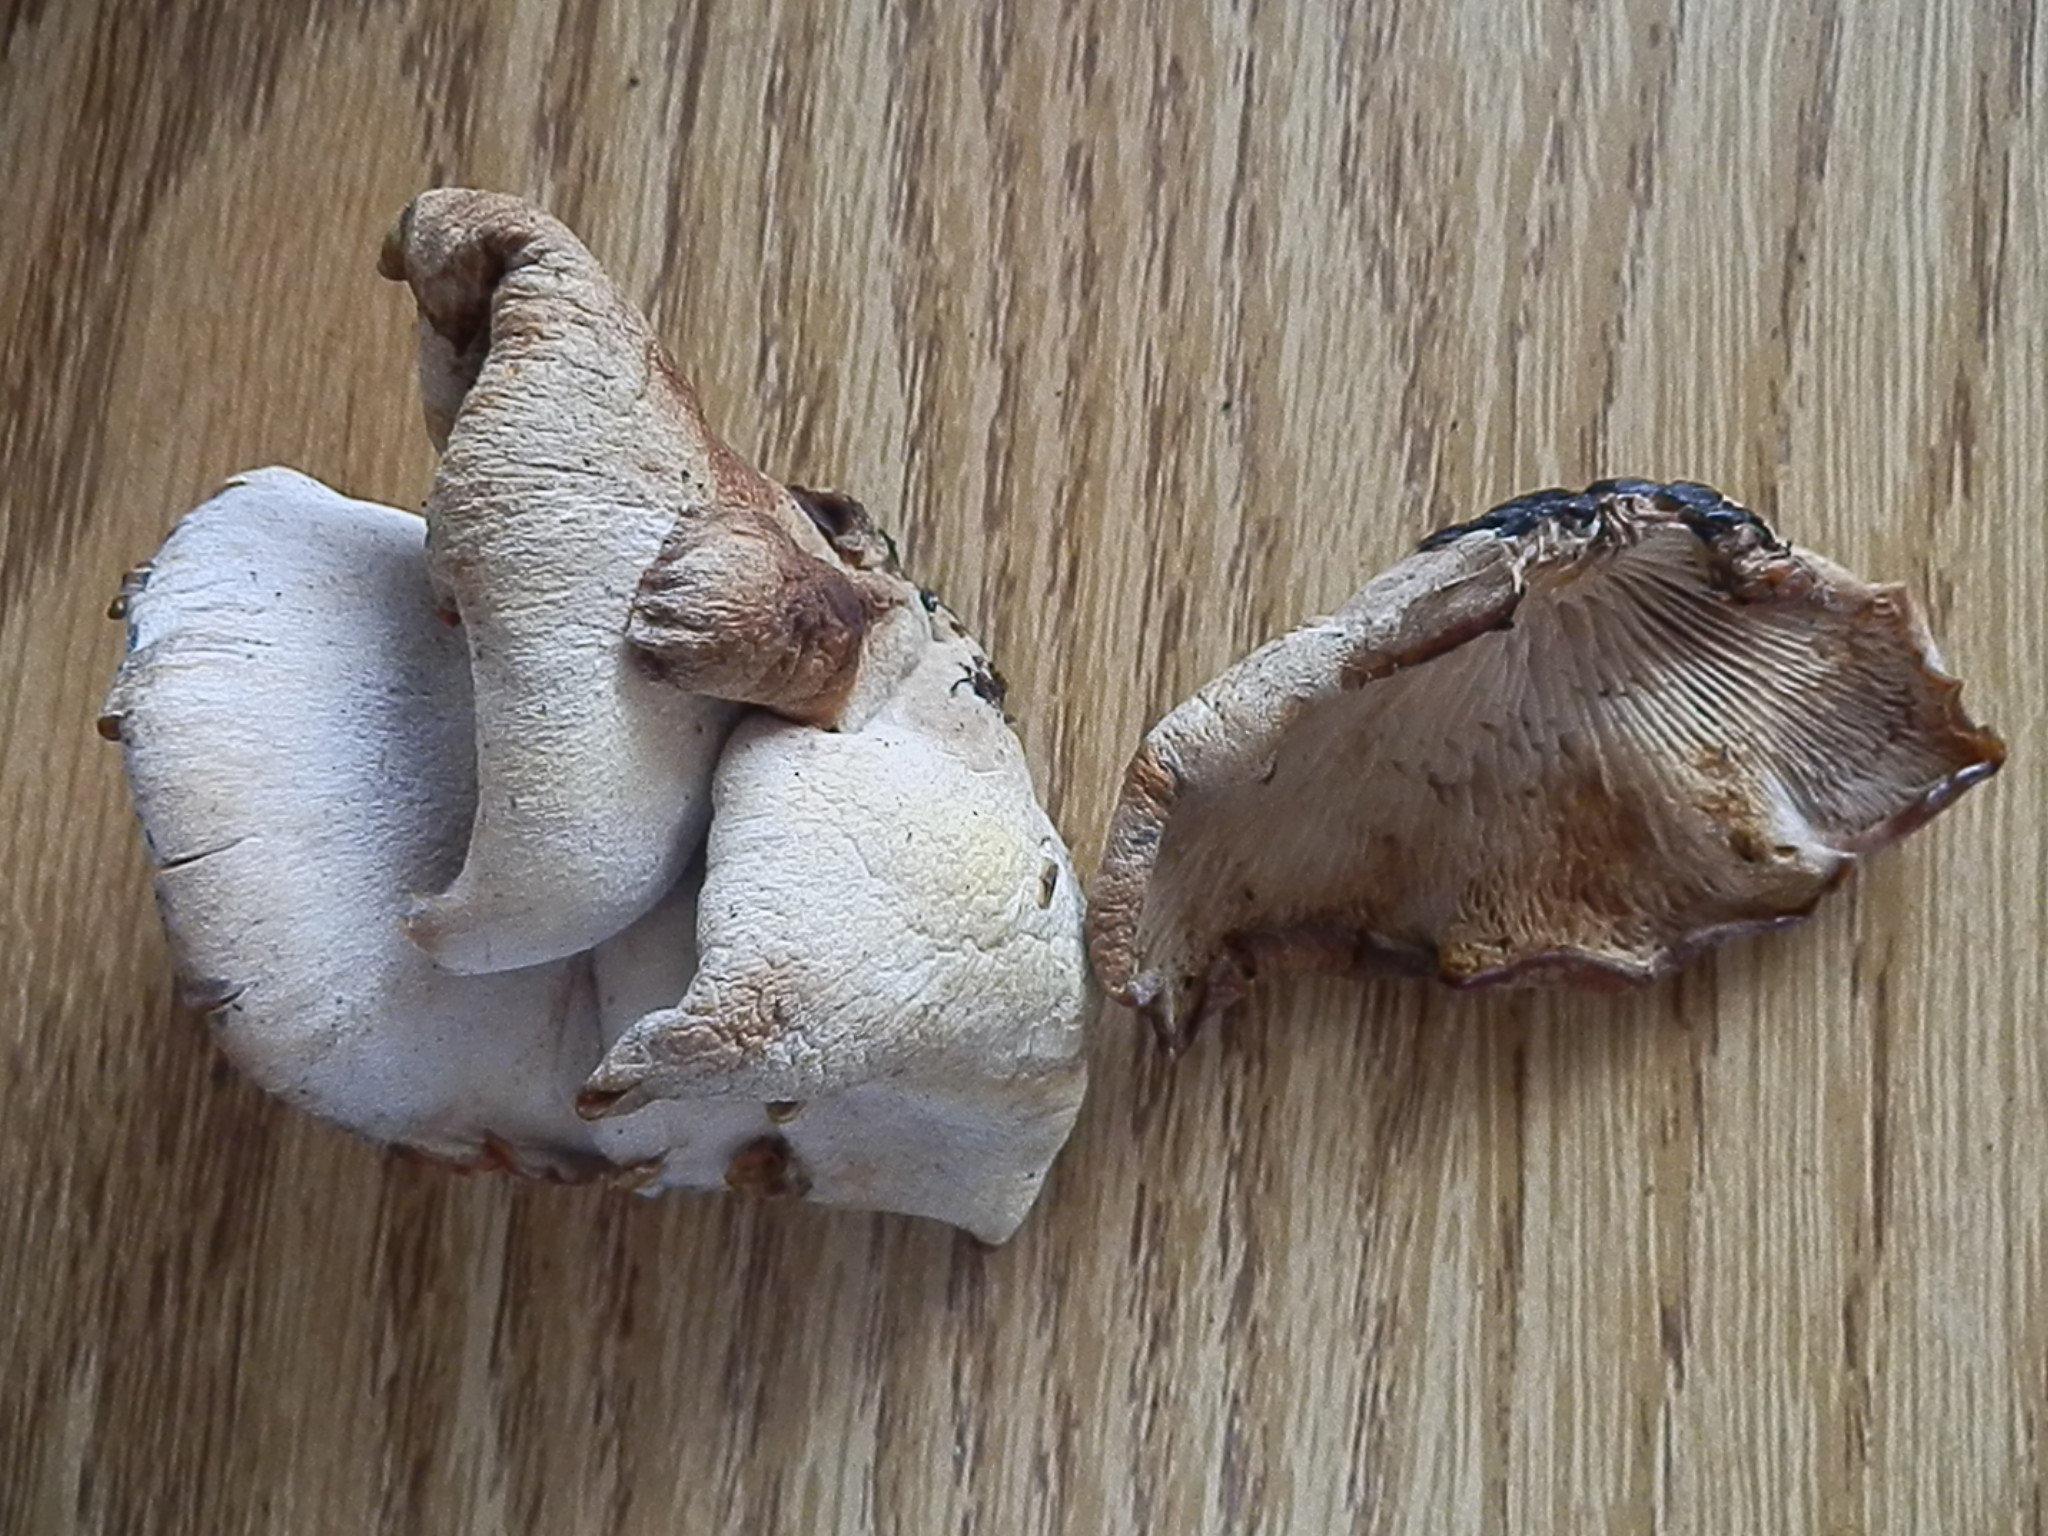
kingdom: Fungi
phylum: Basidiomycota
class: Agaricomycetes
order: Russulales
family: Auriscalpiaceae
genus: Lentinellus
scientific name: Lentinellus ursinus
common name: Bear lentinus
